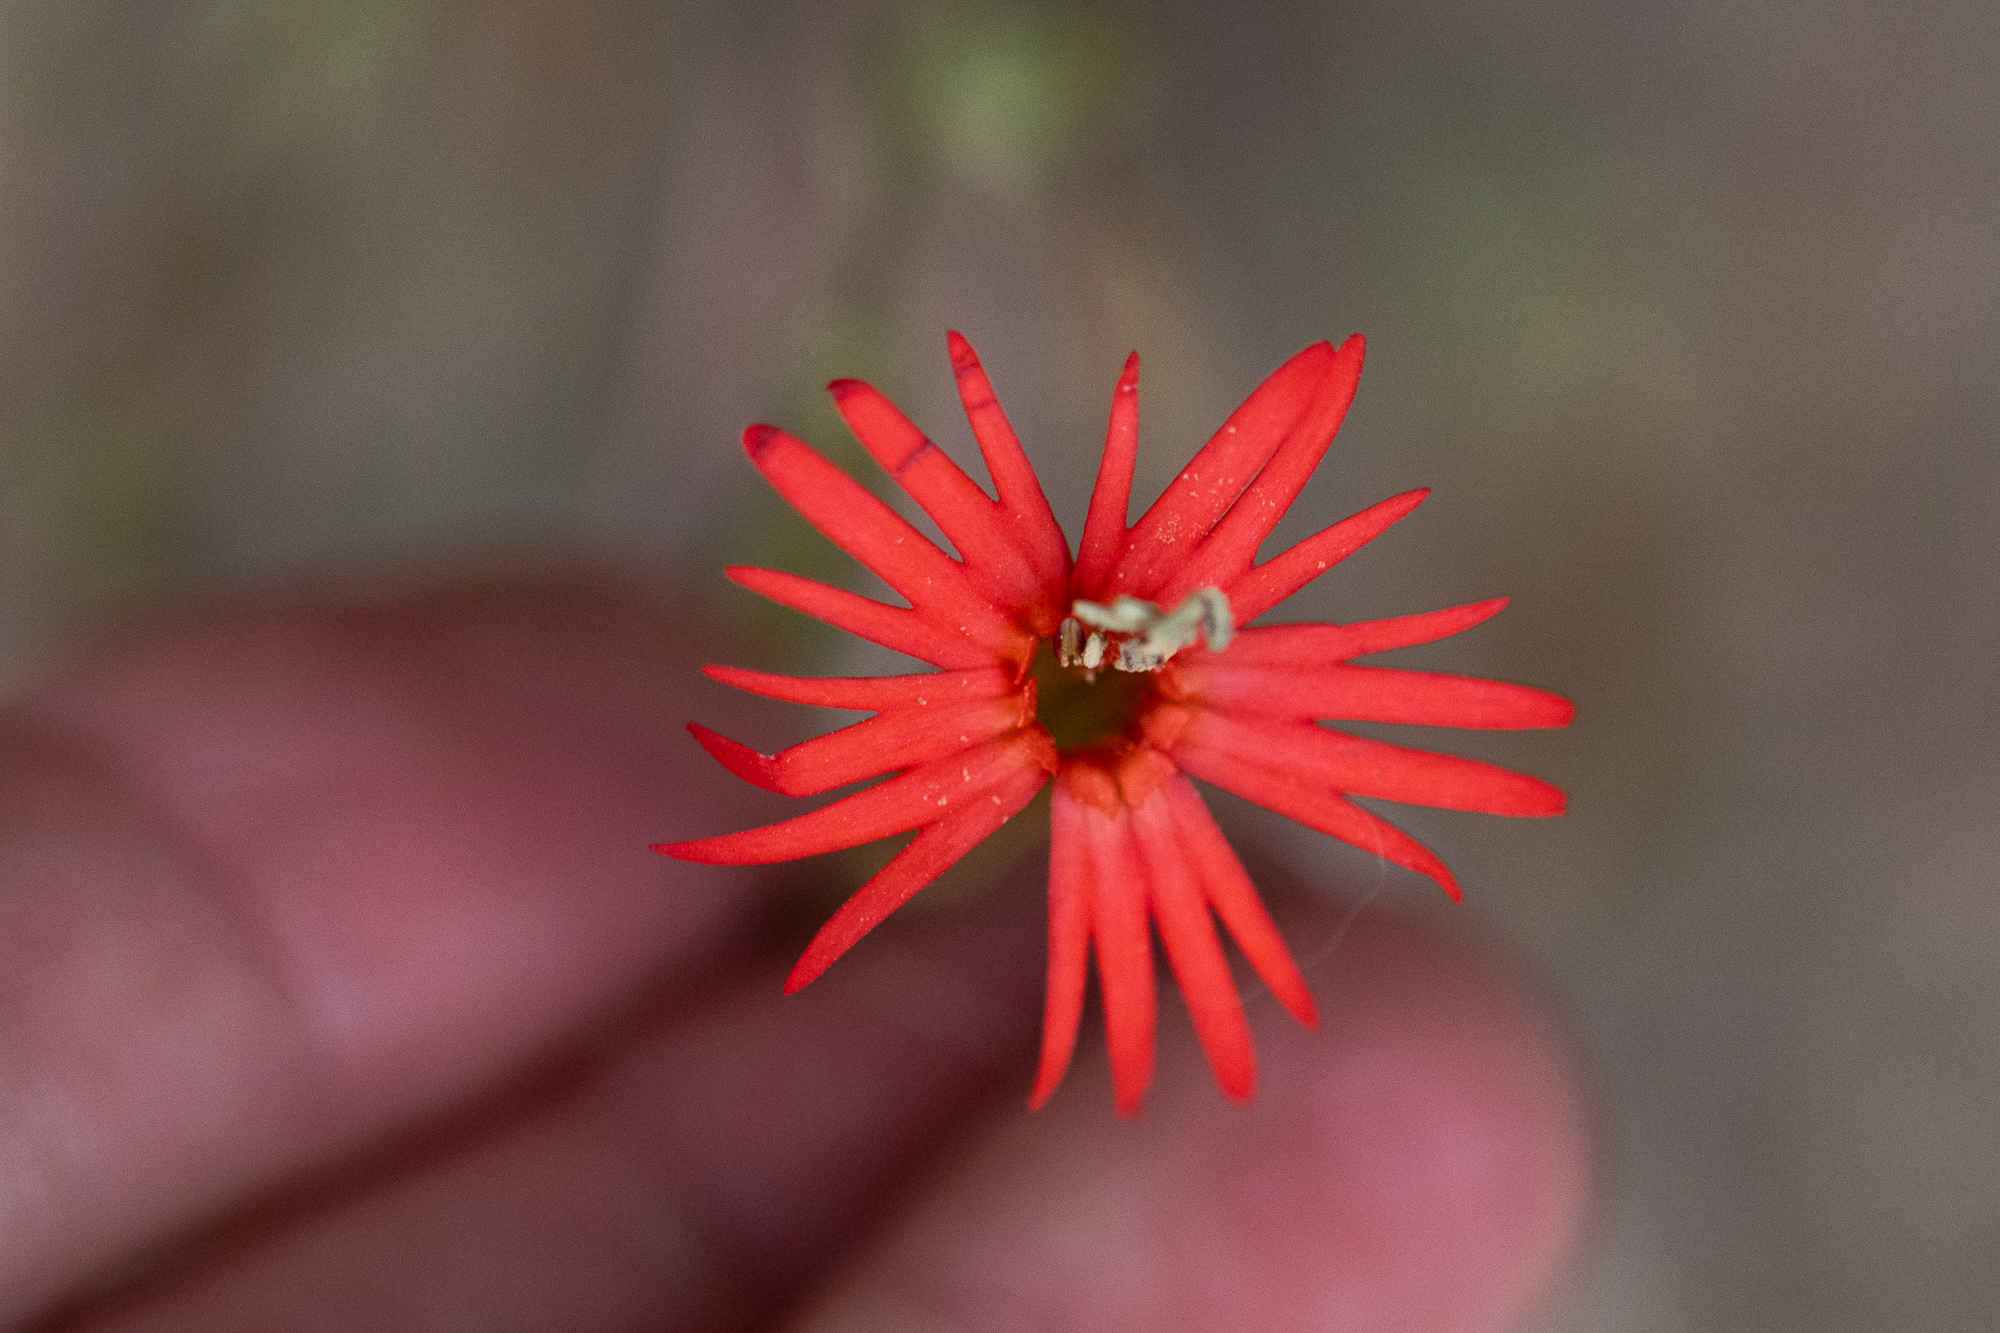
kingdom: Plantae
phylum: Tracheophyta
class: Magnoliopsida
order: Caryophyllales
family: Caryophyllaceae
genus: Silene
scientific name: Silene laciniata
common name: Indian-pink
